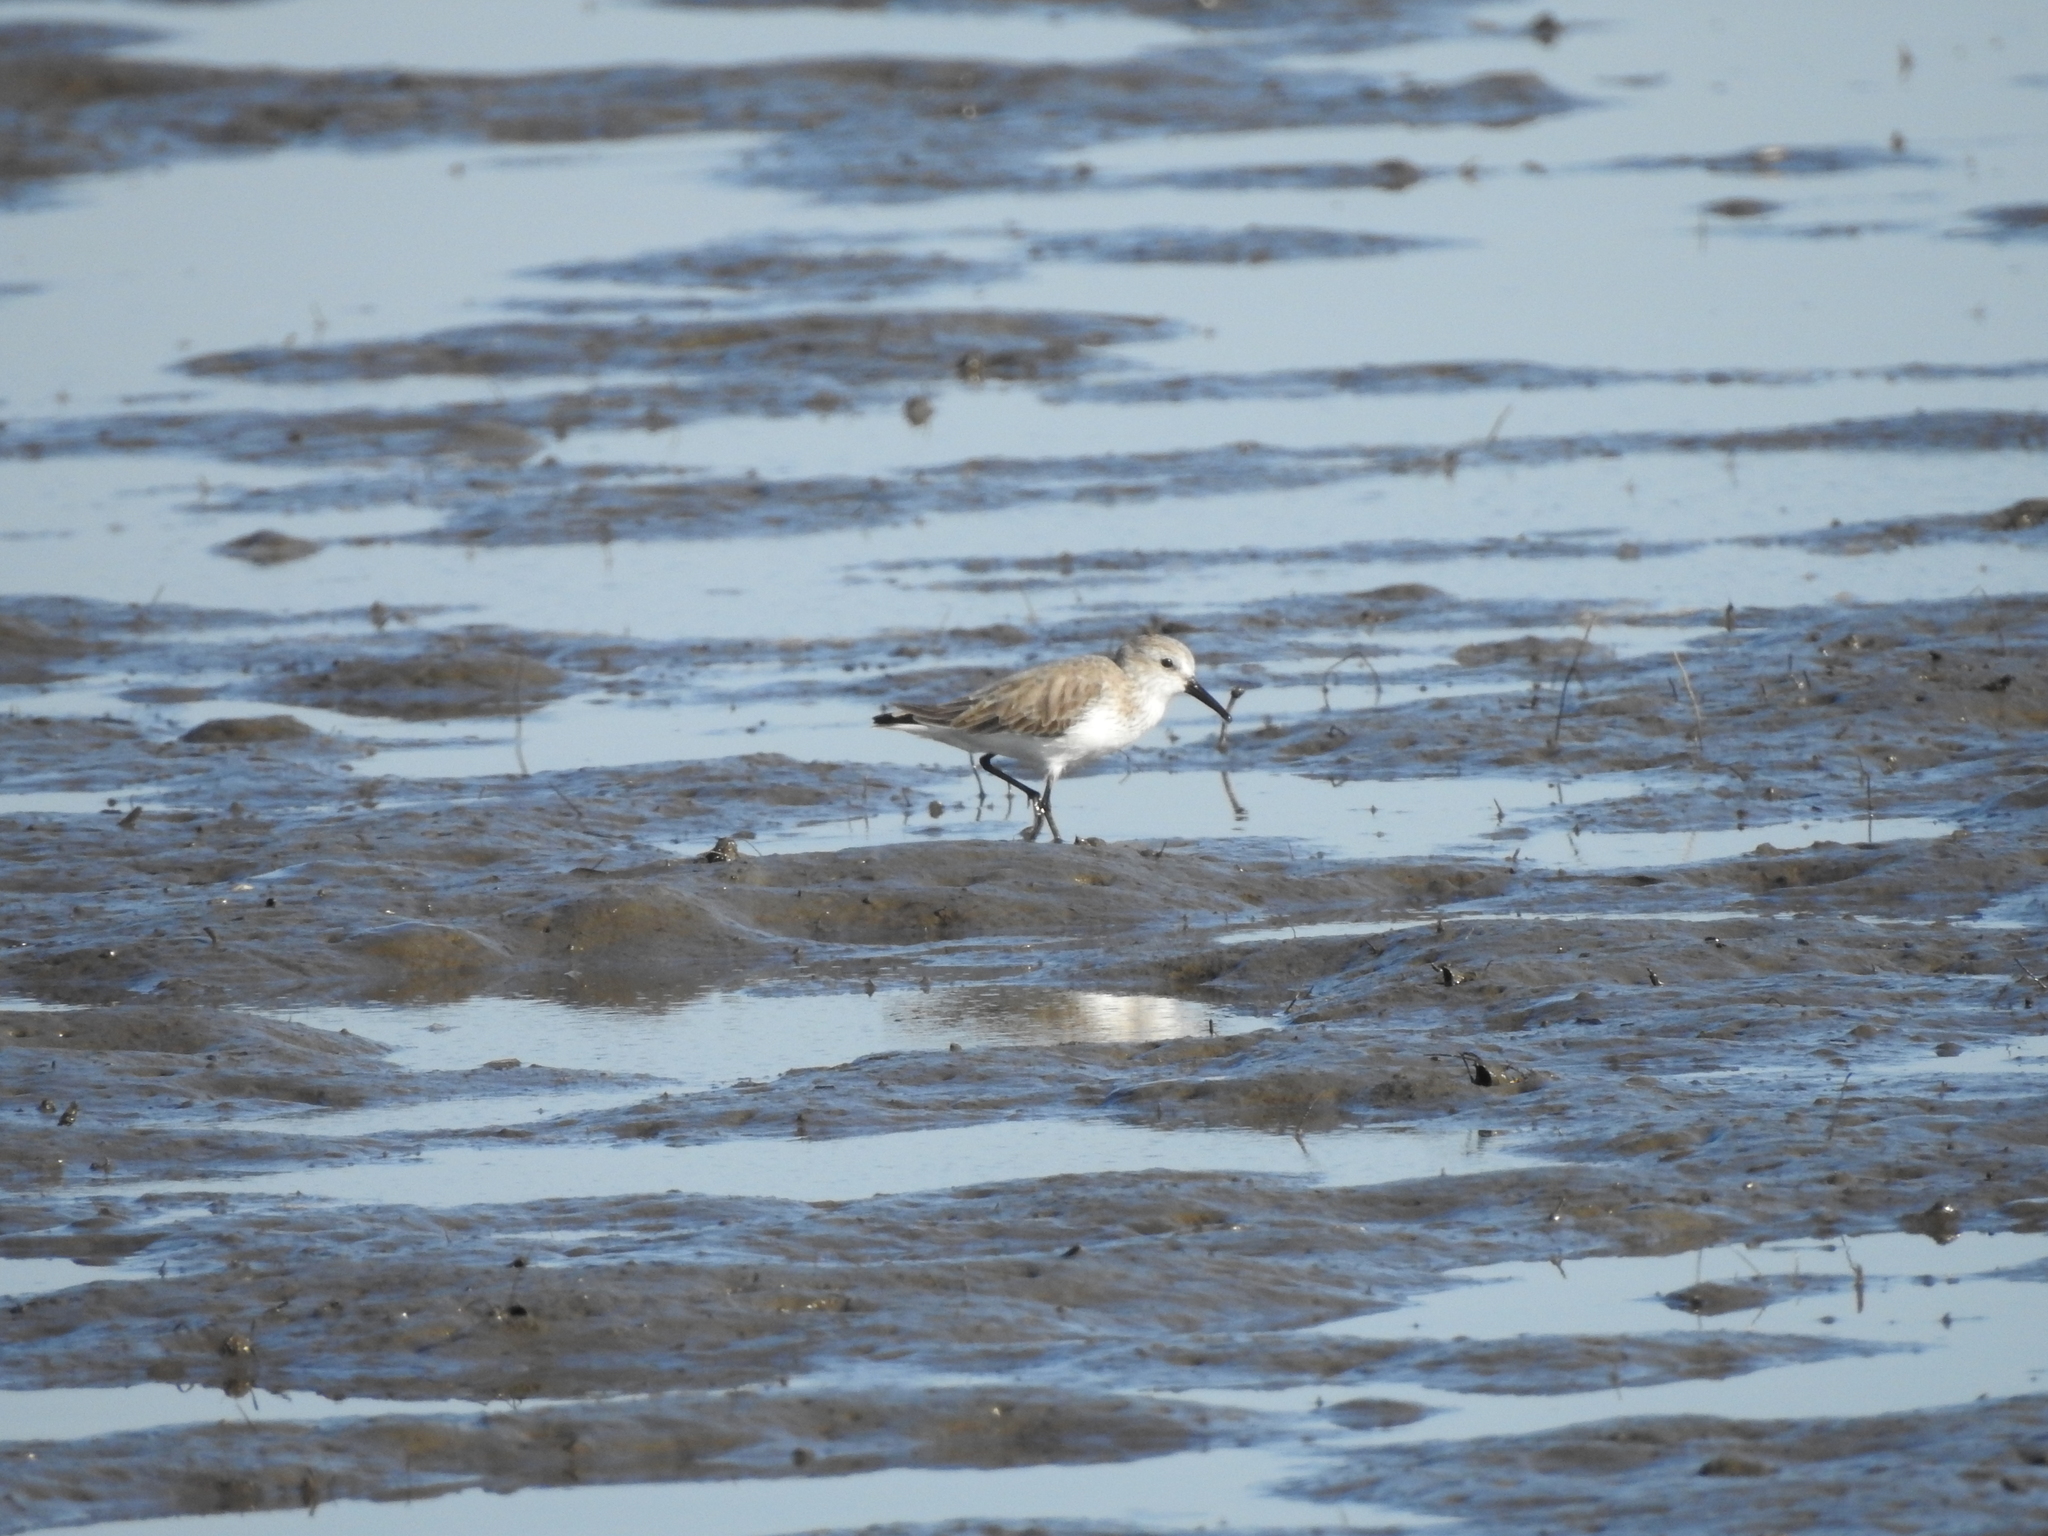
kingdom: Animalia
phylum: Chordata
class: Aves
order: Charadriiformes
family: Scolopacidae
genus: Calidris
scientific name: Calidris mauri
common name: Western sandpiper
